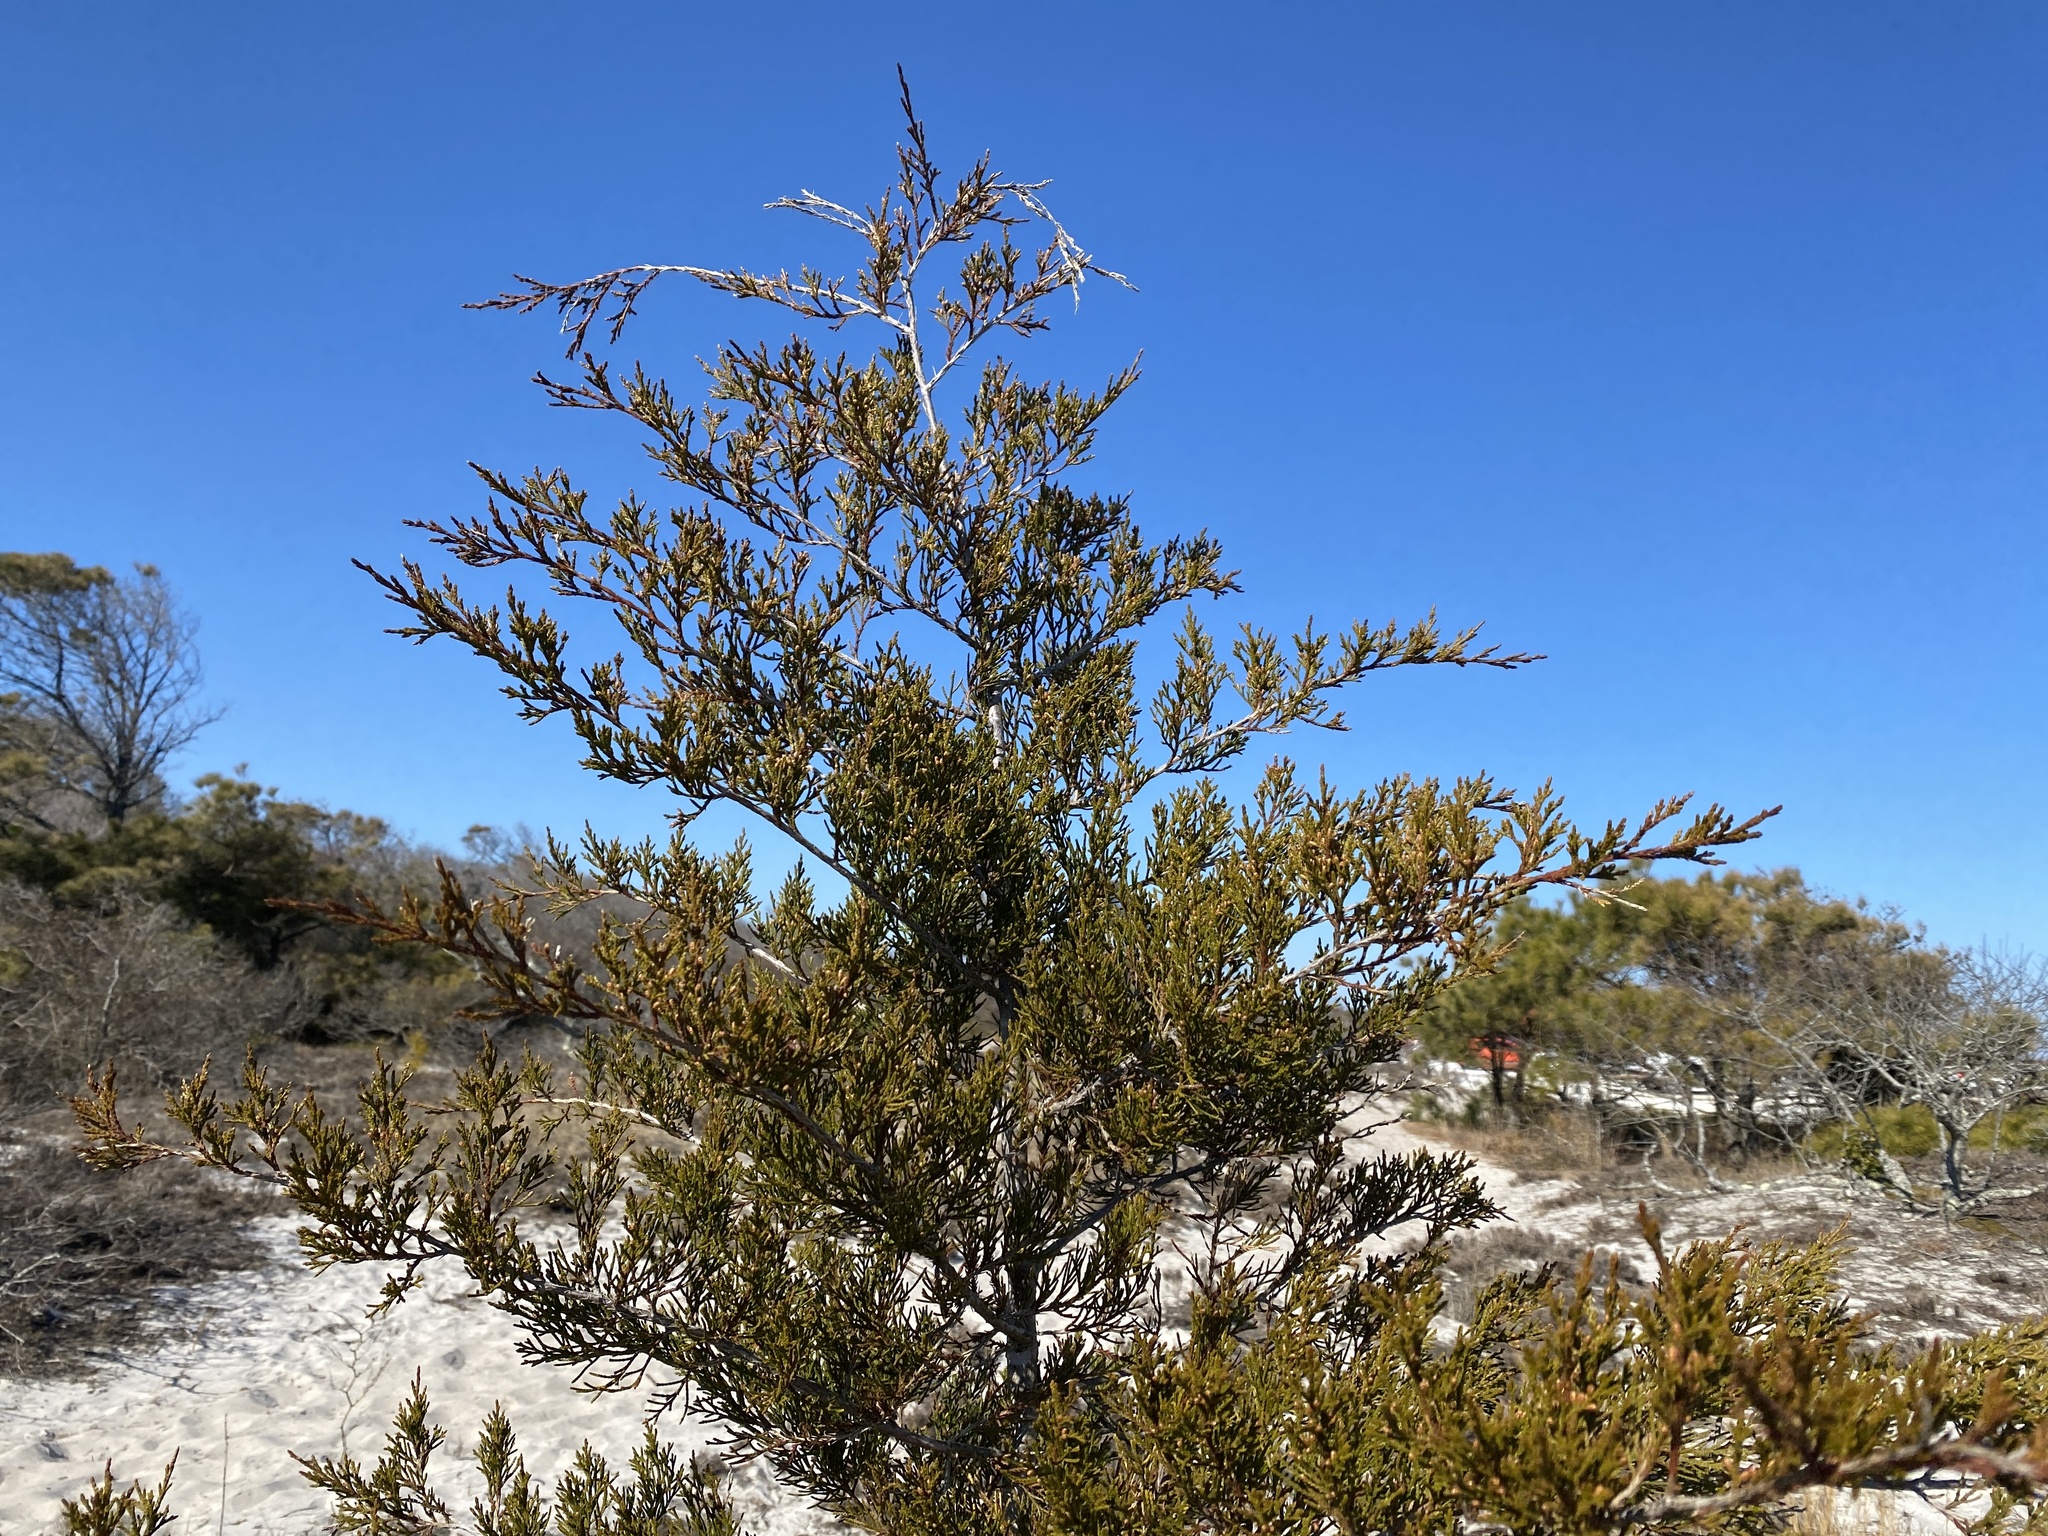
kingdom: Plantae
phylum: Tracheophyta
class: Pinopsida
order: Pinales
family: Cupressaceae
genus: Juniperus
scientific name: Juniperus virginiana
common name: Red juniper
